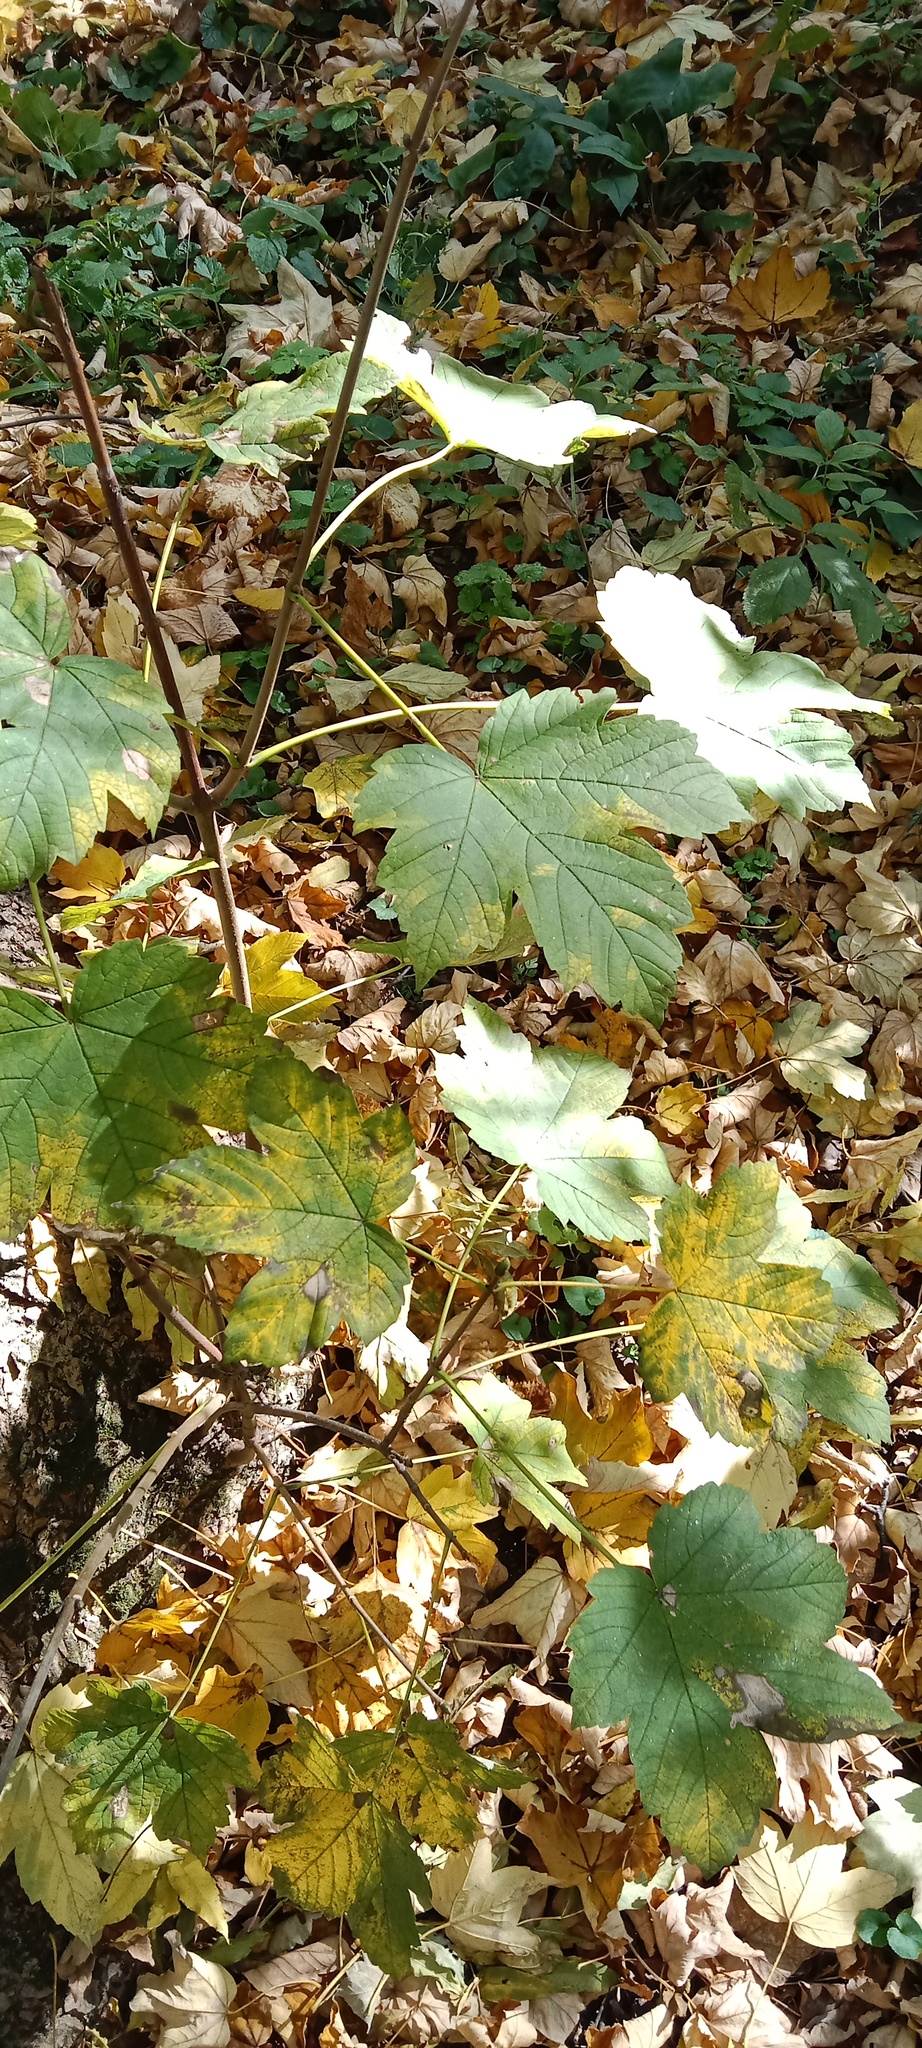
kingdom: Plantae
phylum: Tracheophyta
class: Magnoliopsida
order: Sapindales
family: Sapindaceae
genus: Acer
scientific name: Acer pseudoplatanus
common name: Sycamore
